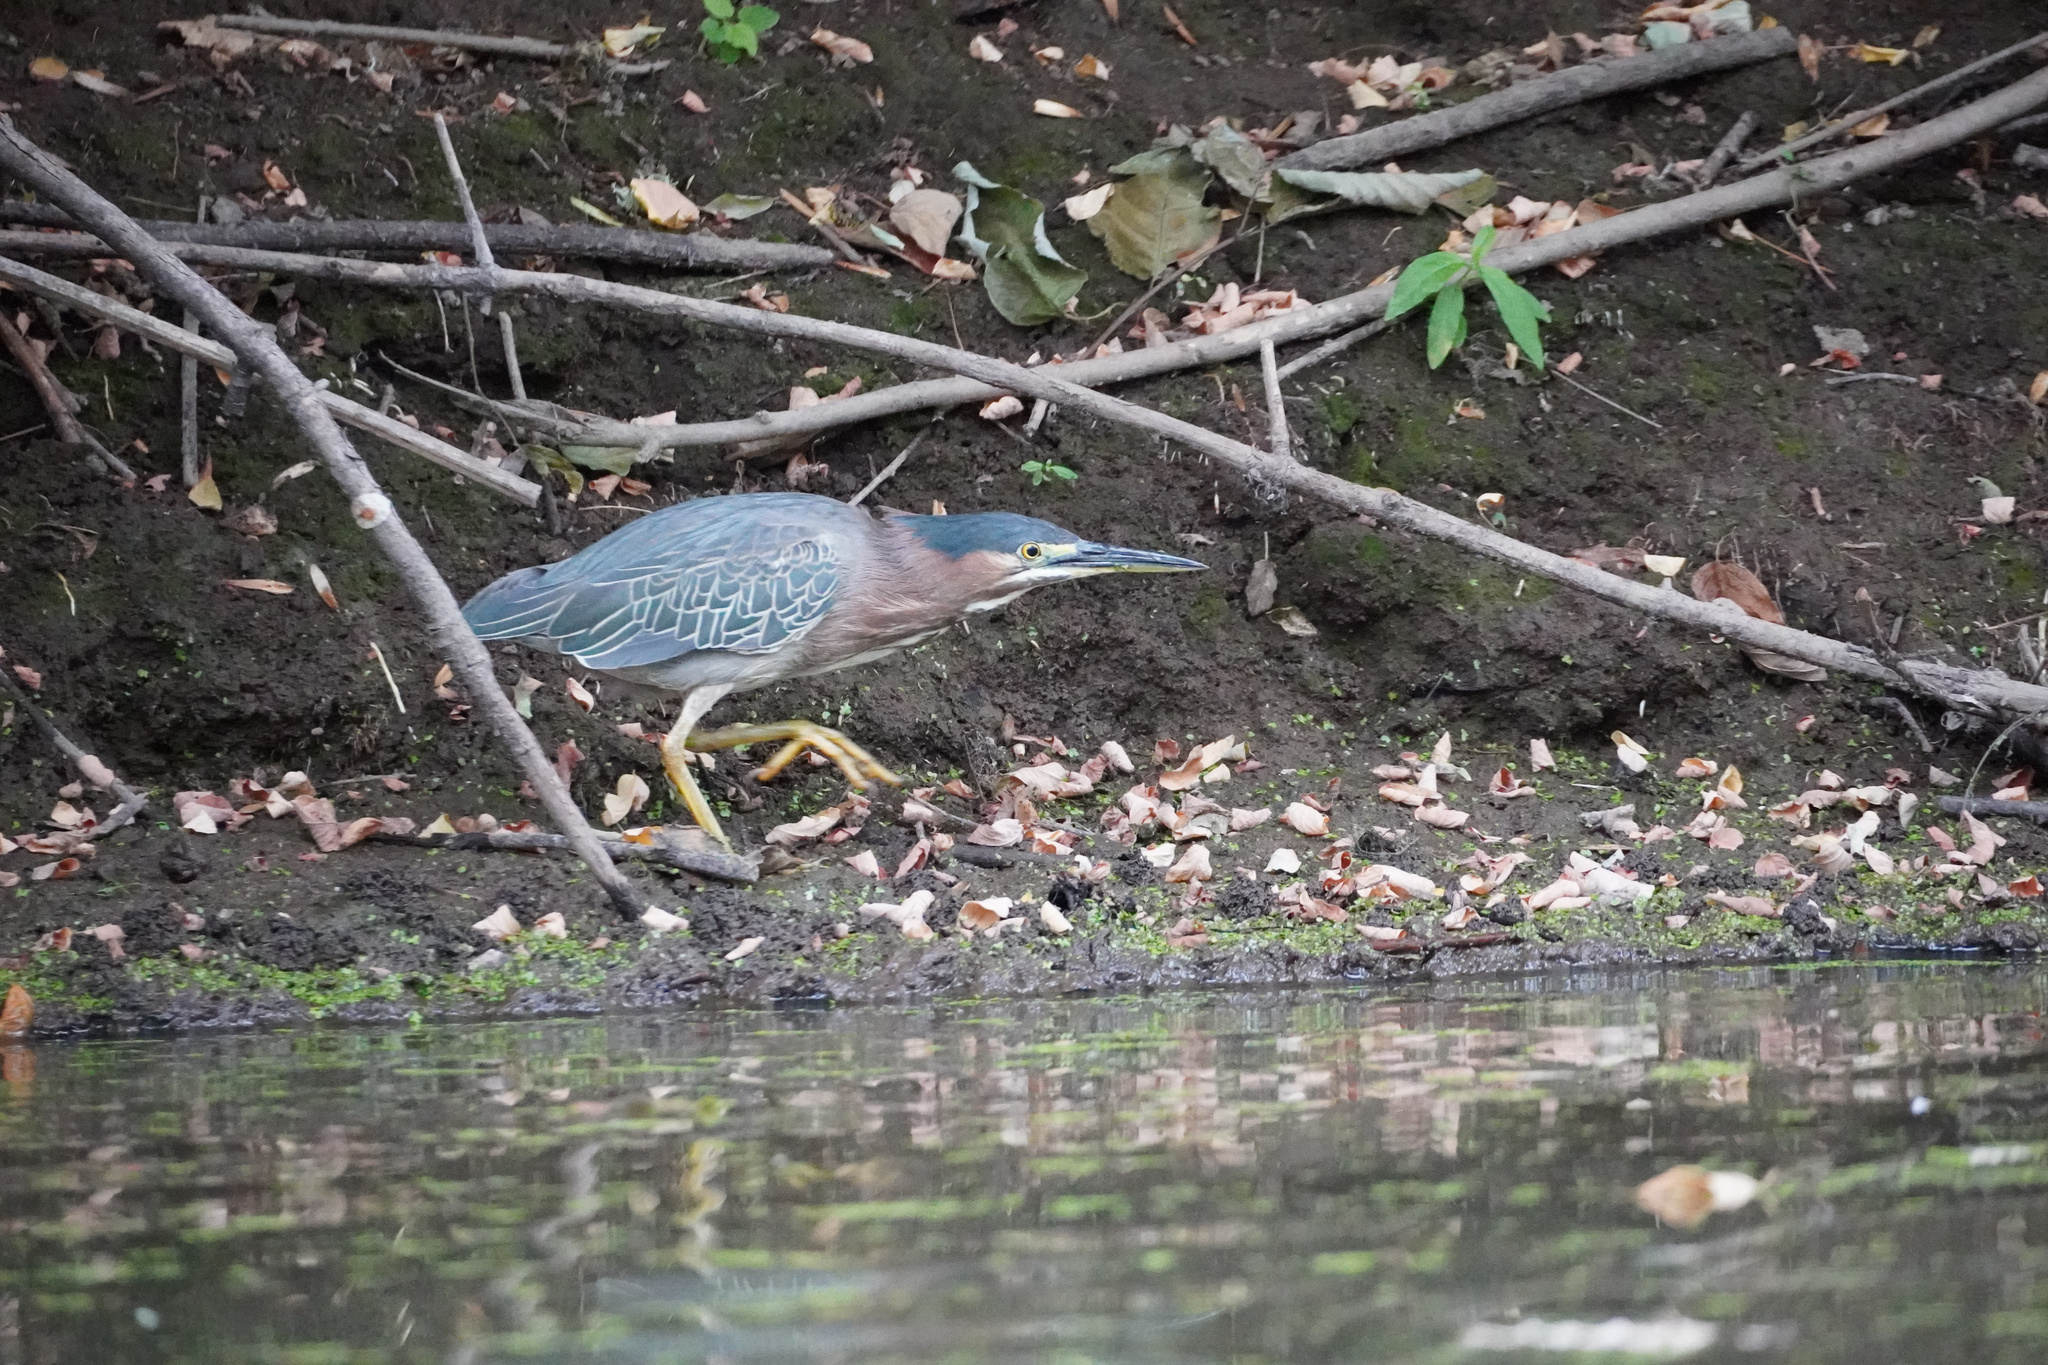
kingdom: Animalia
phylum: Chordata
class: Aves
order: Pelecaniformes
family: Ardeidae
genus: Butorides
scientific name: Butorides virescens
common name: Green heron
